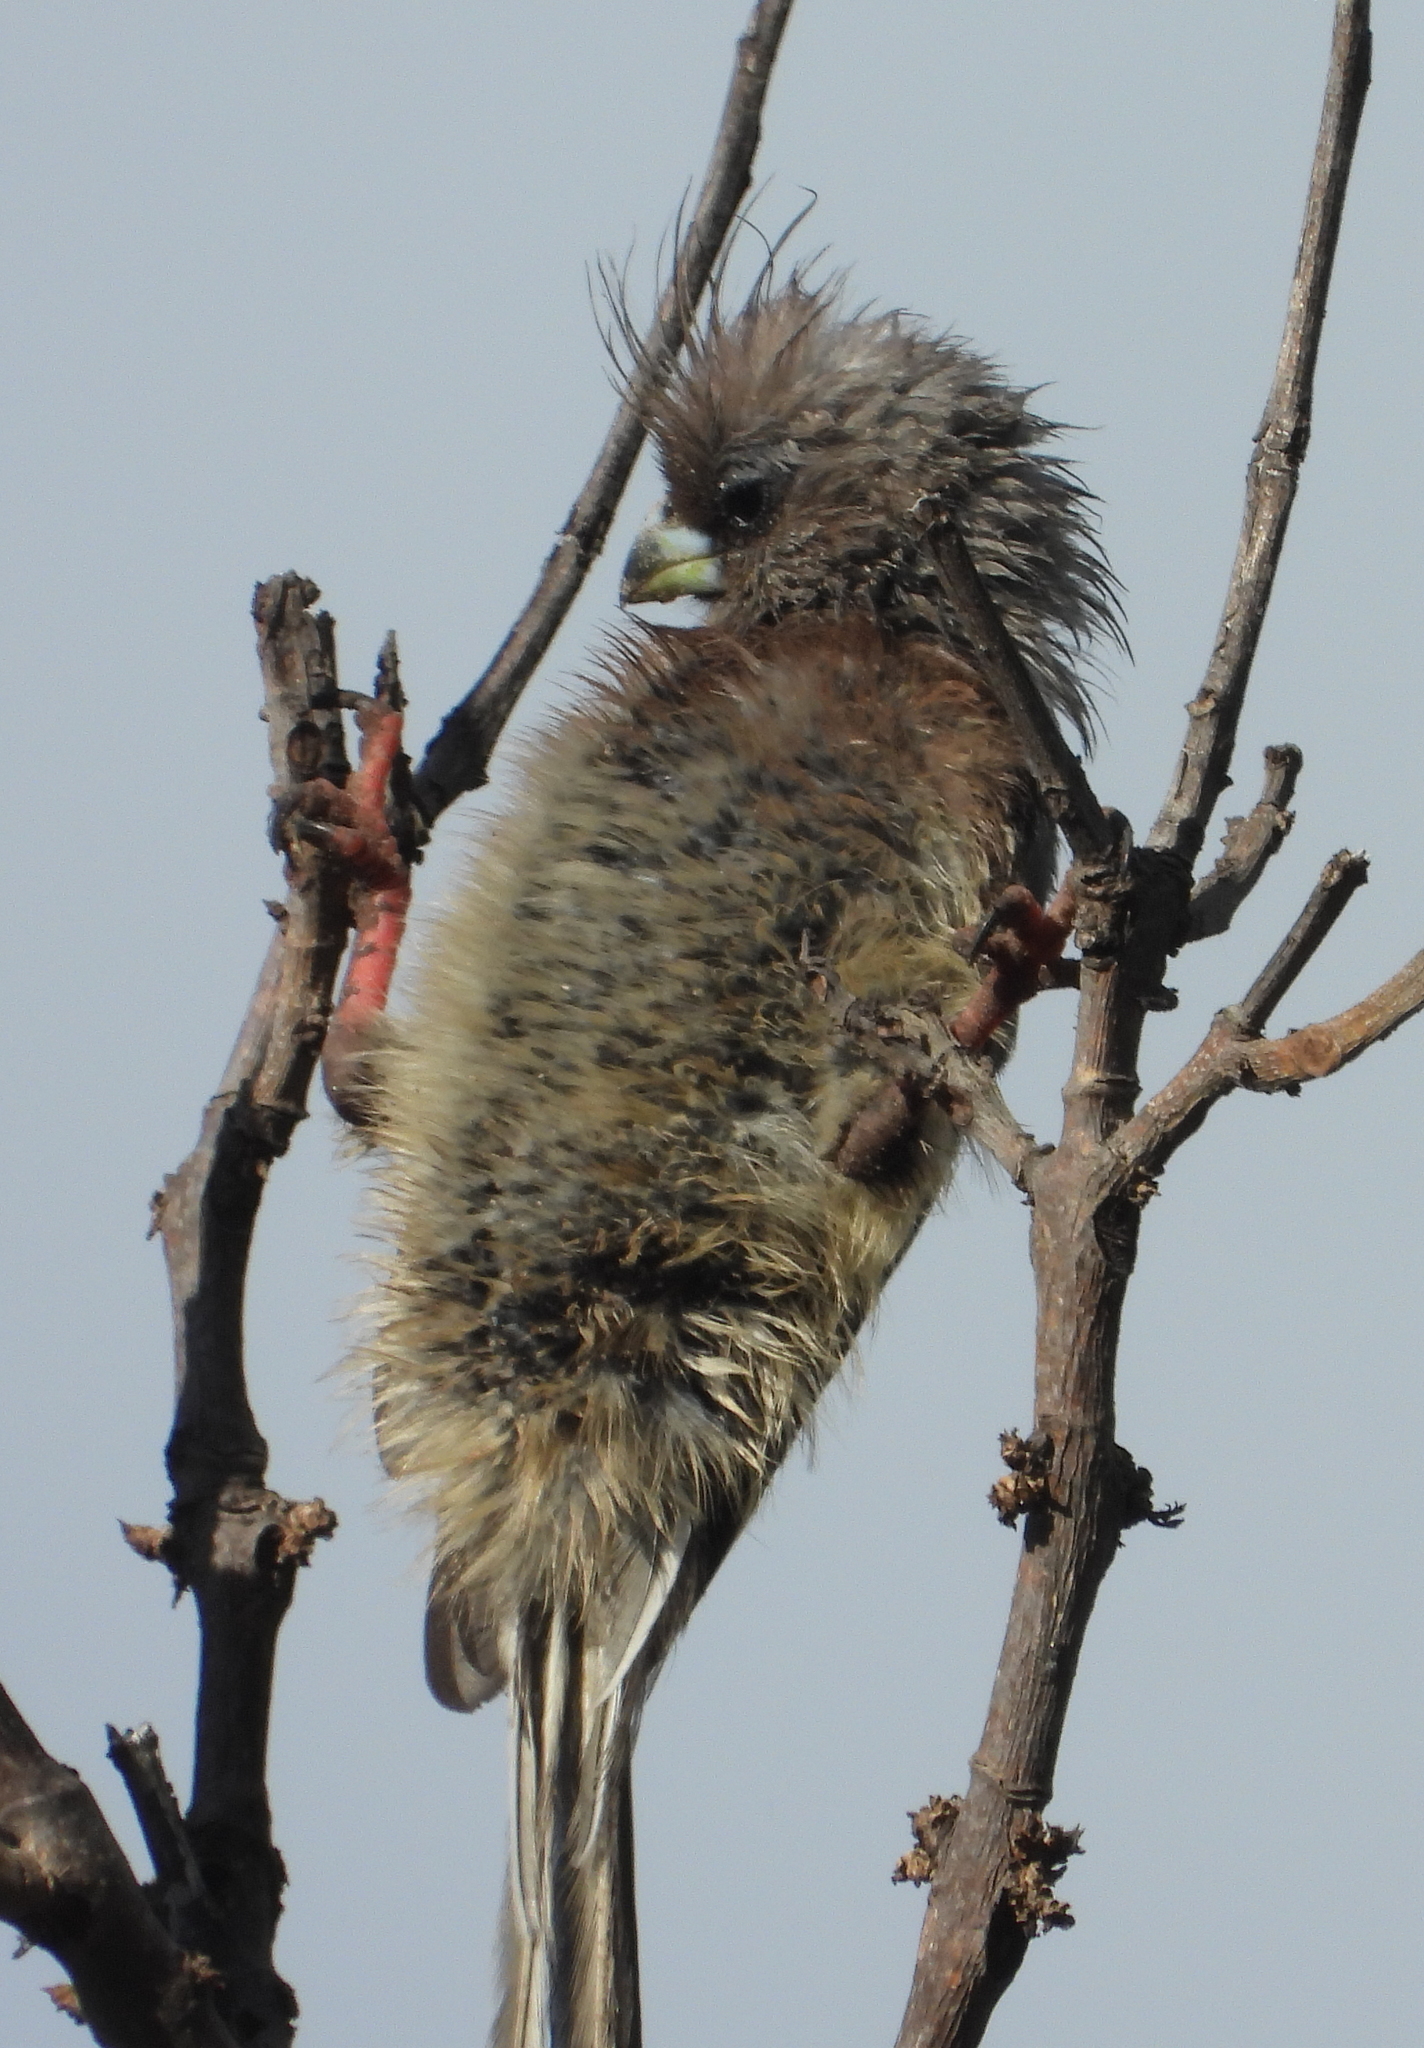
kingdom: Animalia
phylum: Chordata
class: Aves
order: Coliiformes
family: Coliidae
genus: Colius
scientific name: Colius colius
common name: White-backed mousebird
